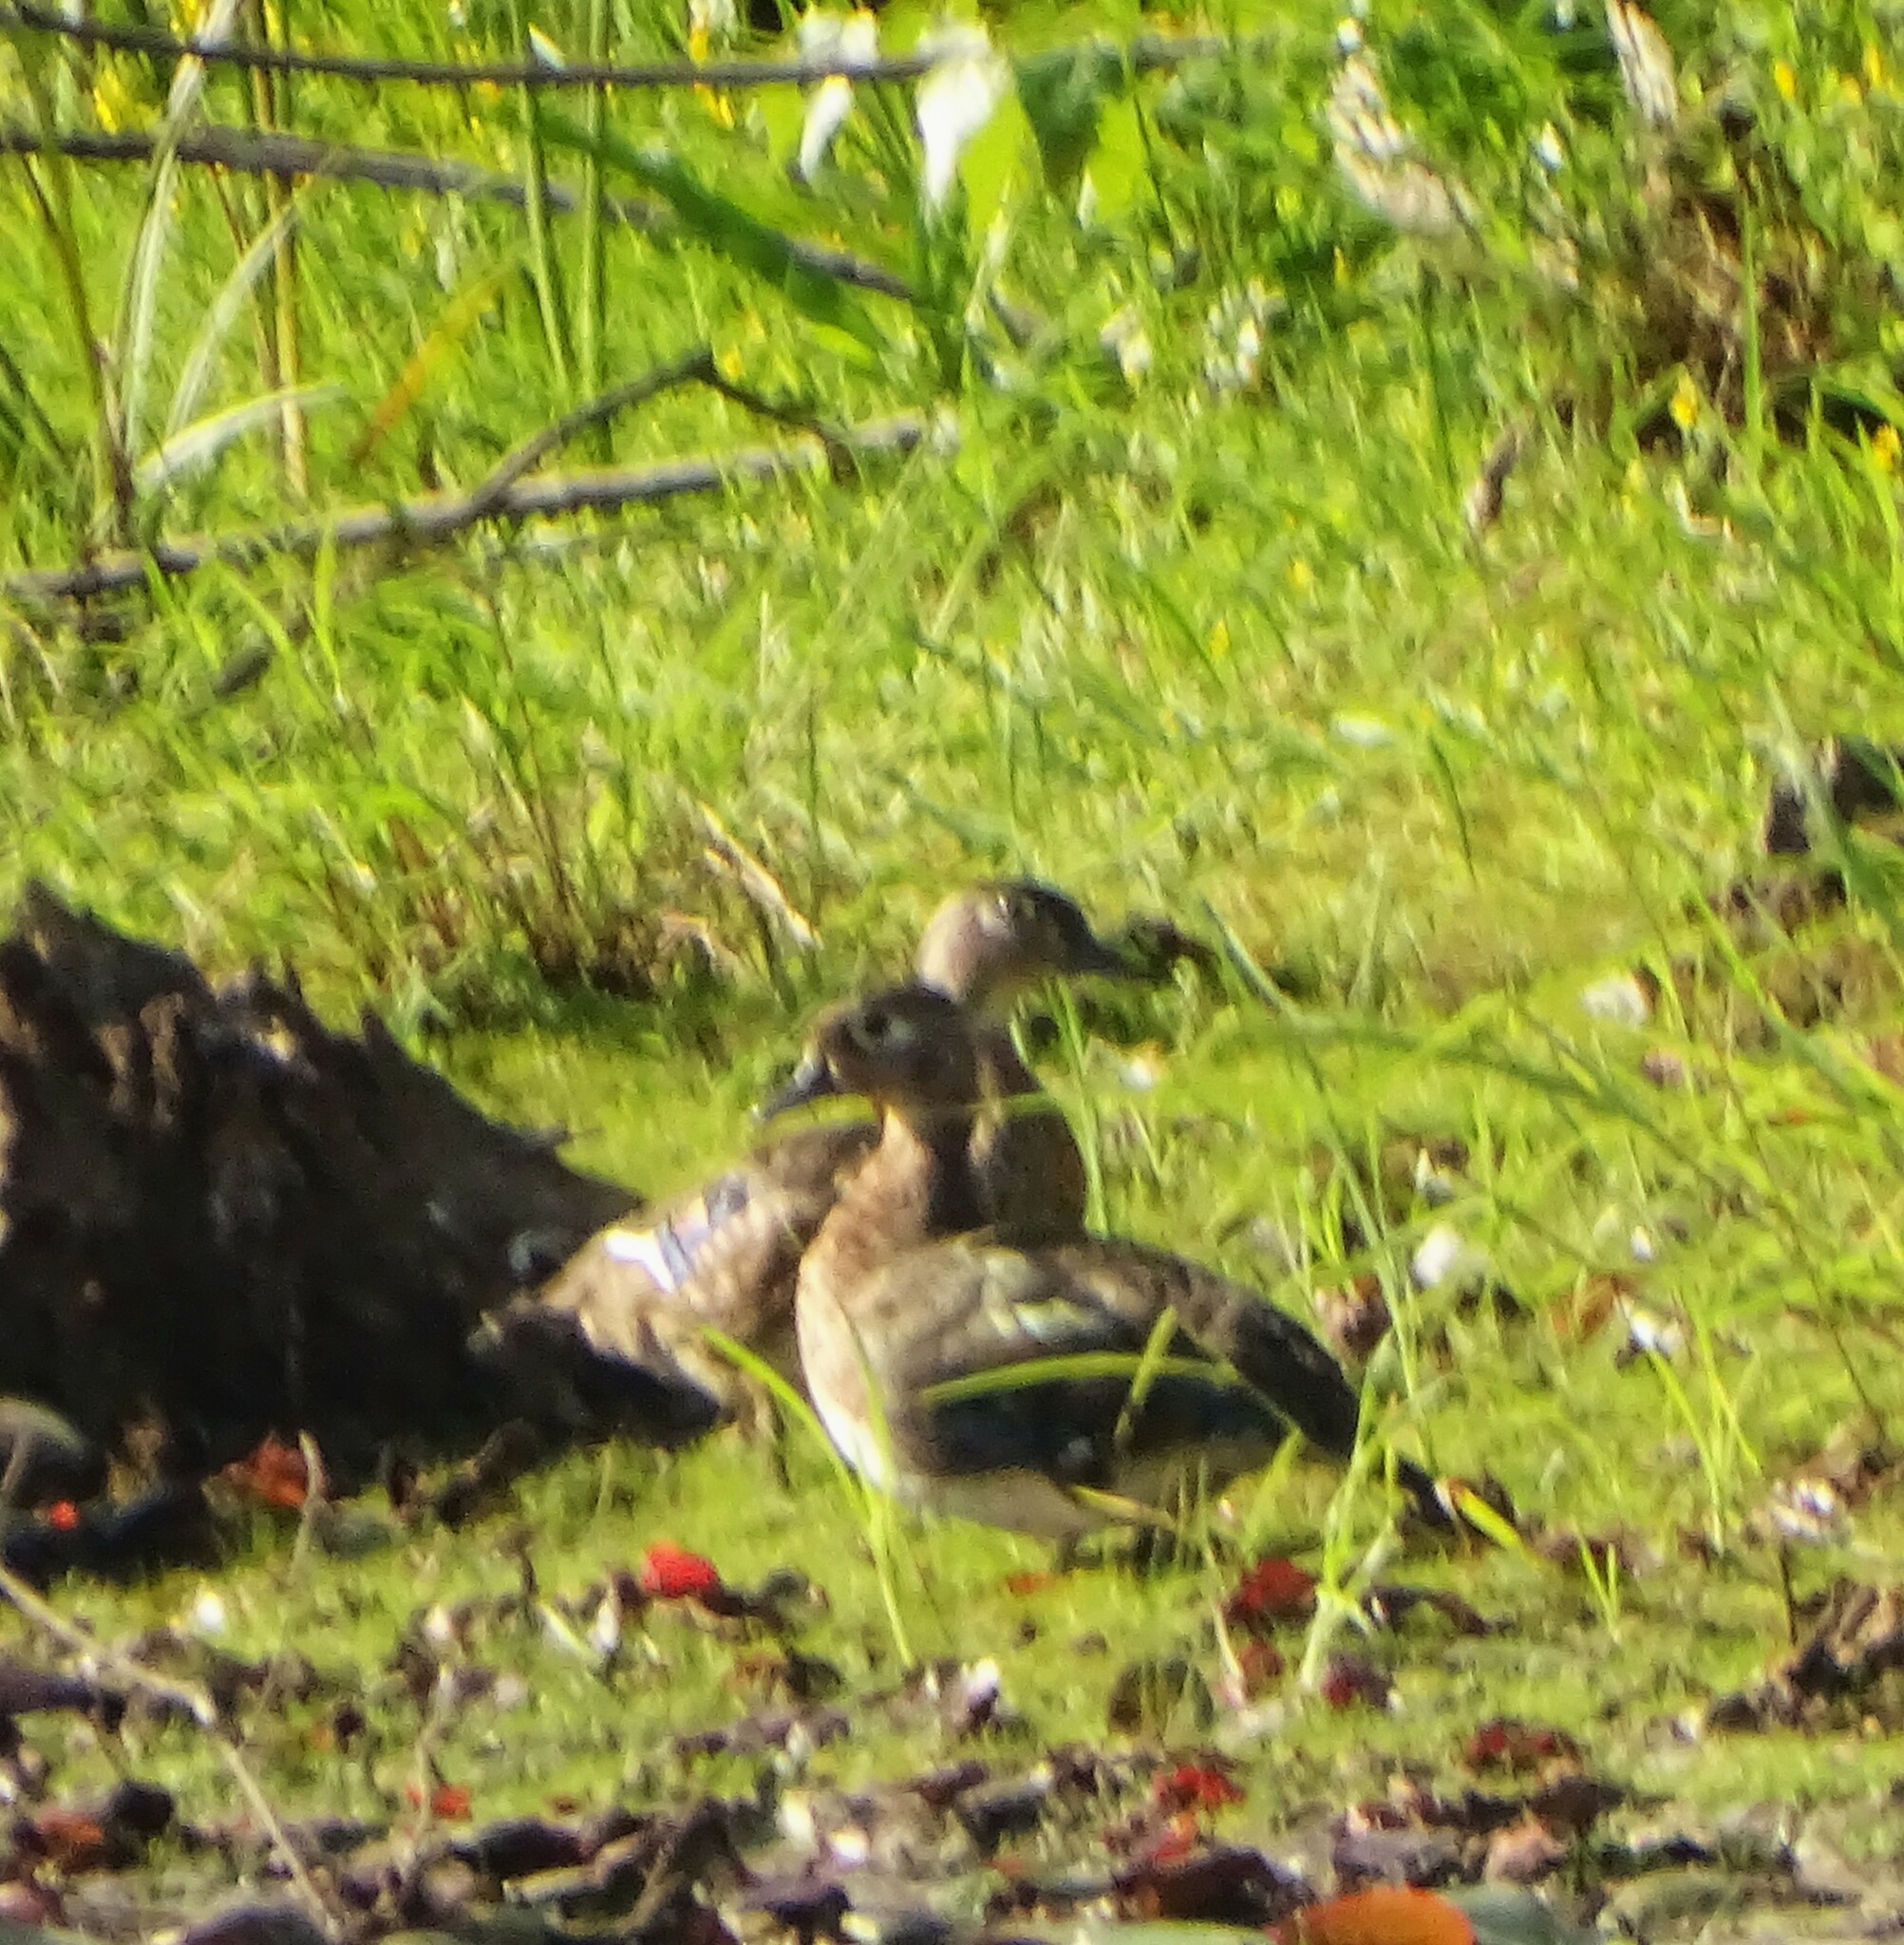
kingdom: Animalia
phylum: Chordata
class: Aves
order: Anseriformes
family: Anatidae
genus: Aix
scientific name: Aix sponsa
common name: Wood duck
